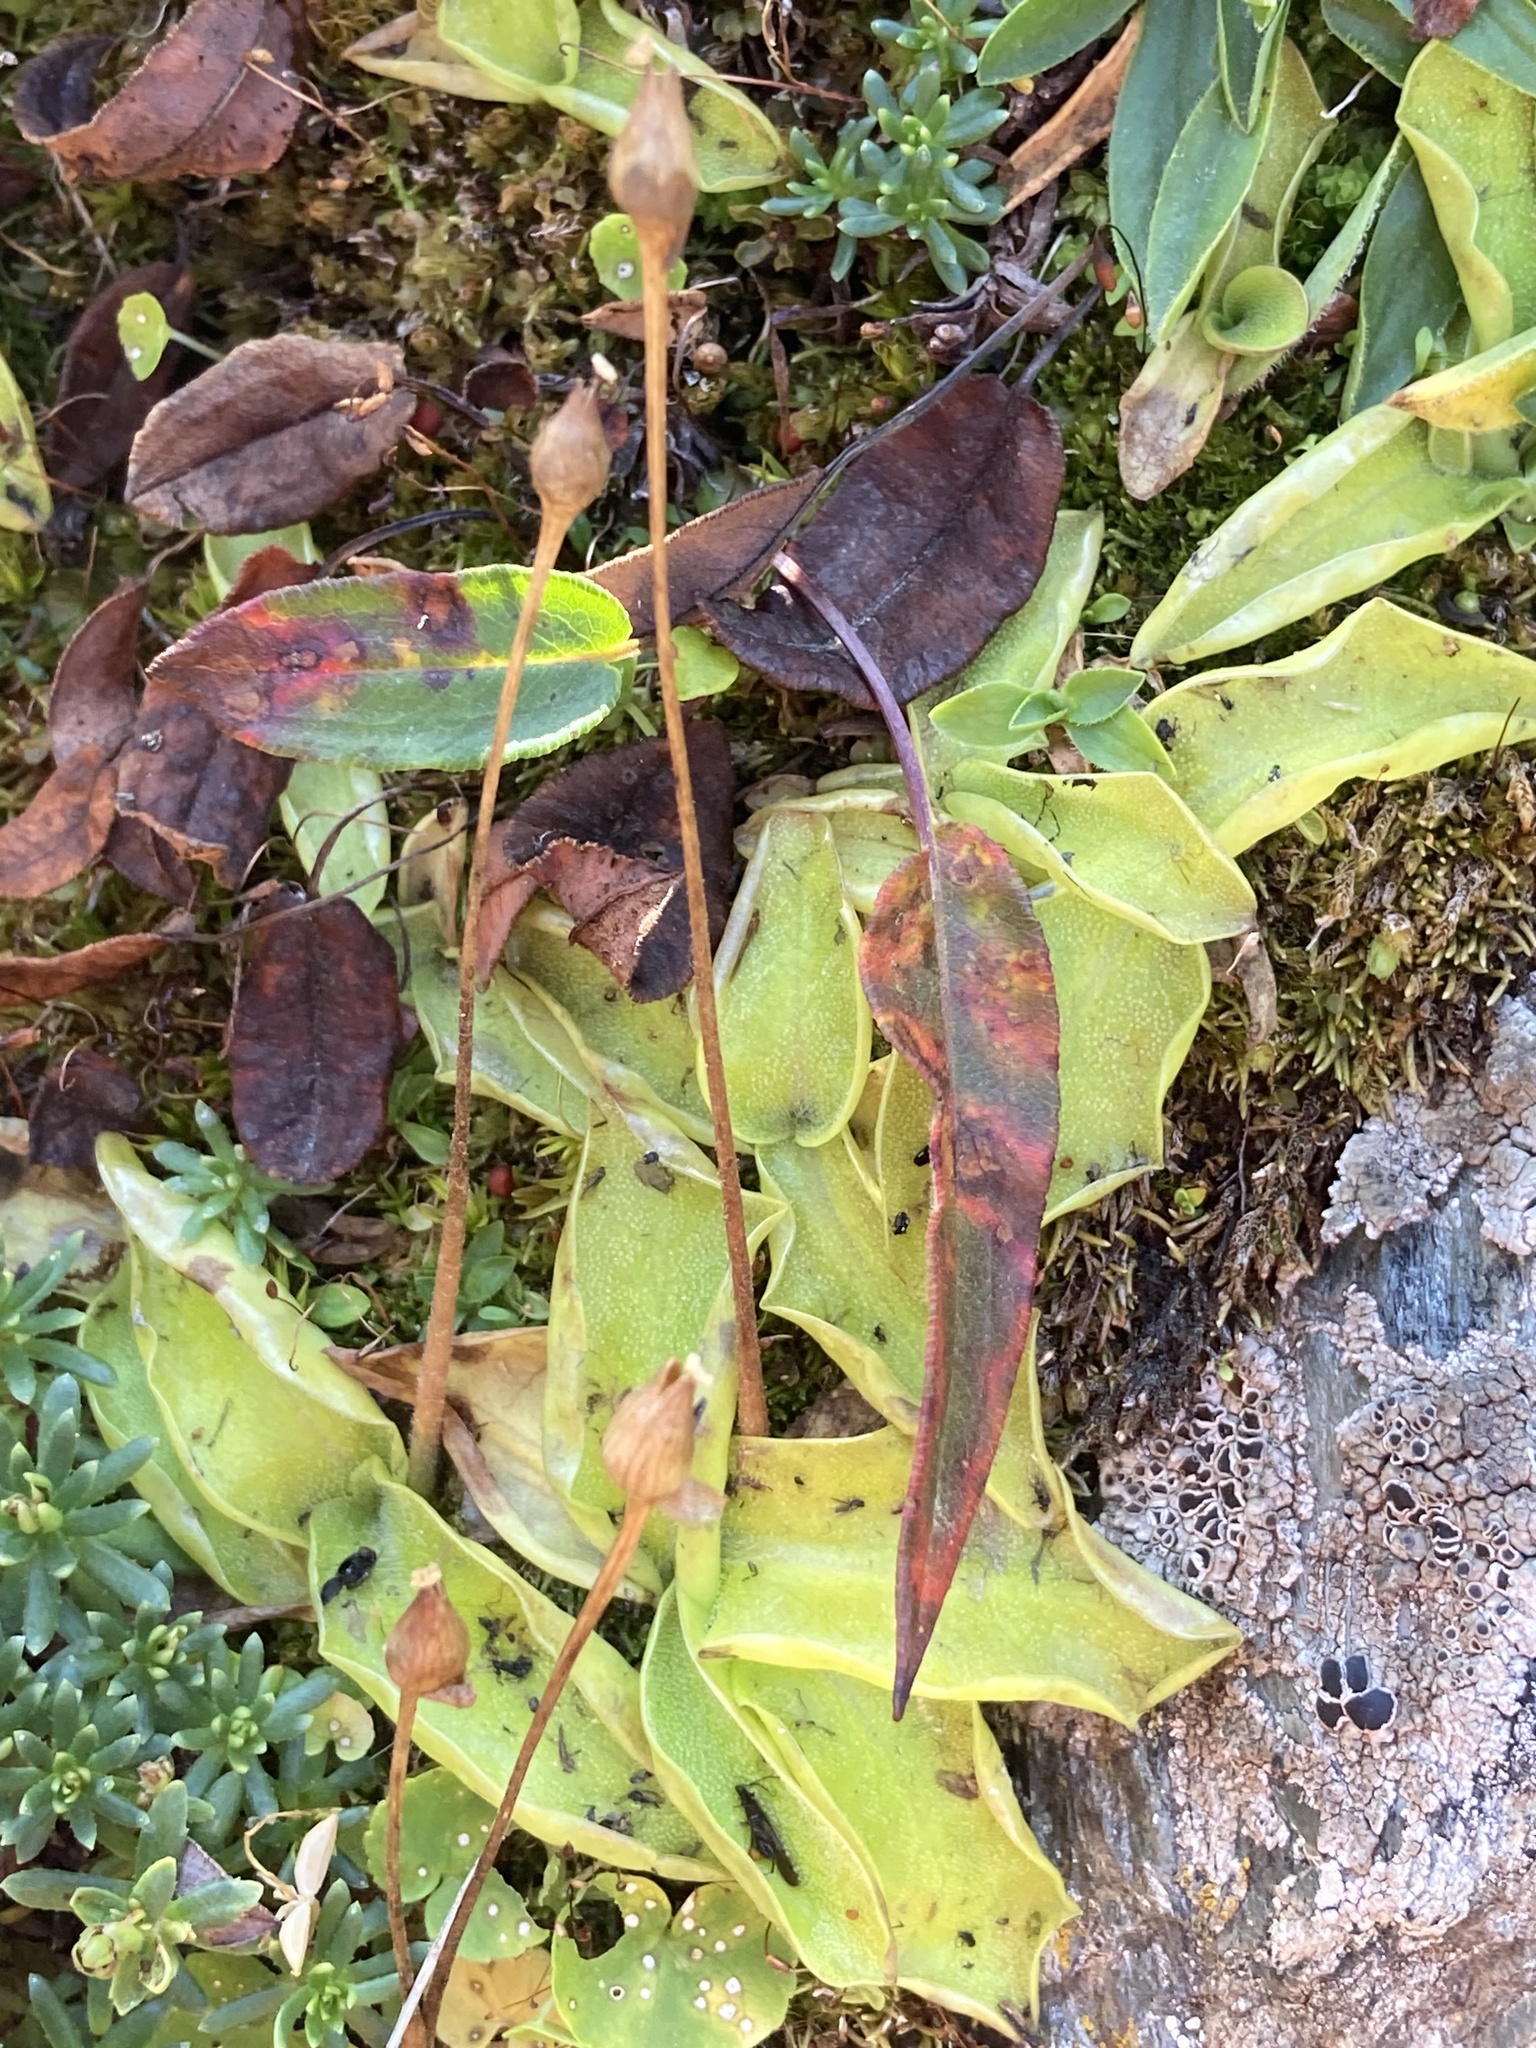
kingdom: Plantae
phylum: Tracheophyta
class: Magnoliopsida
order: Lamiales
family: Lentibulariaceae
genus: Pinguicula
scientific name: Pinguicula grandiflora
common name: Large-flowered butterwort
